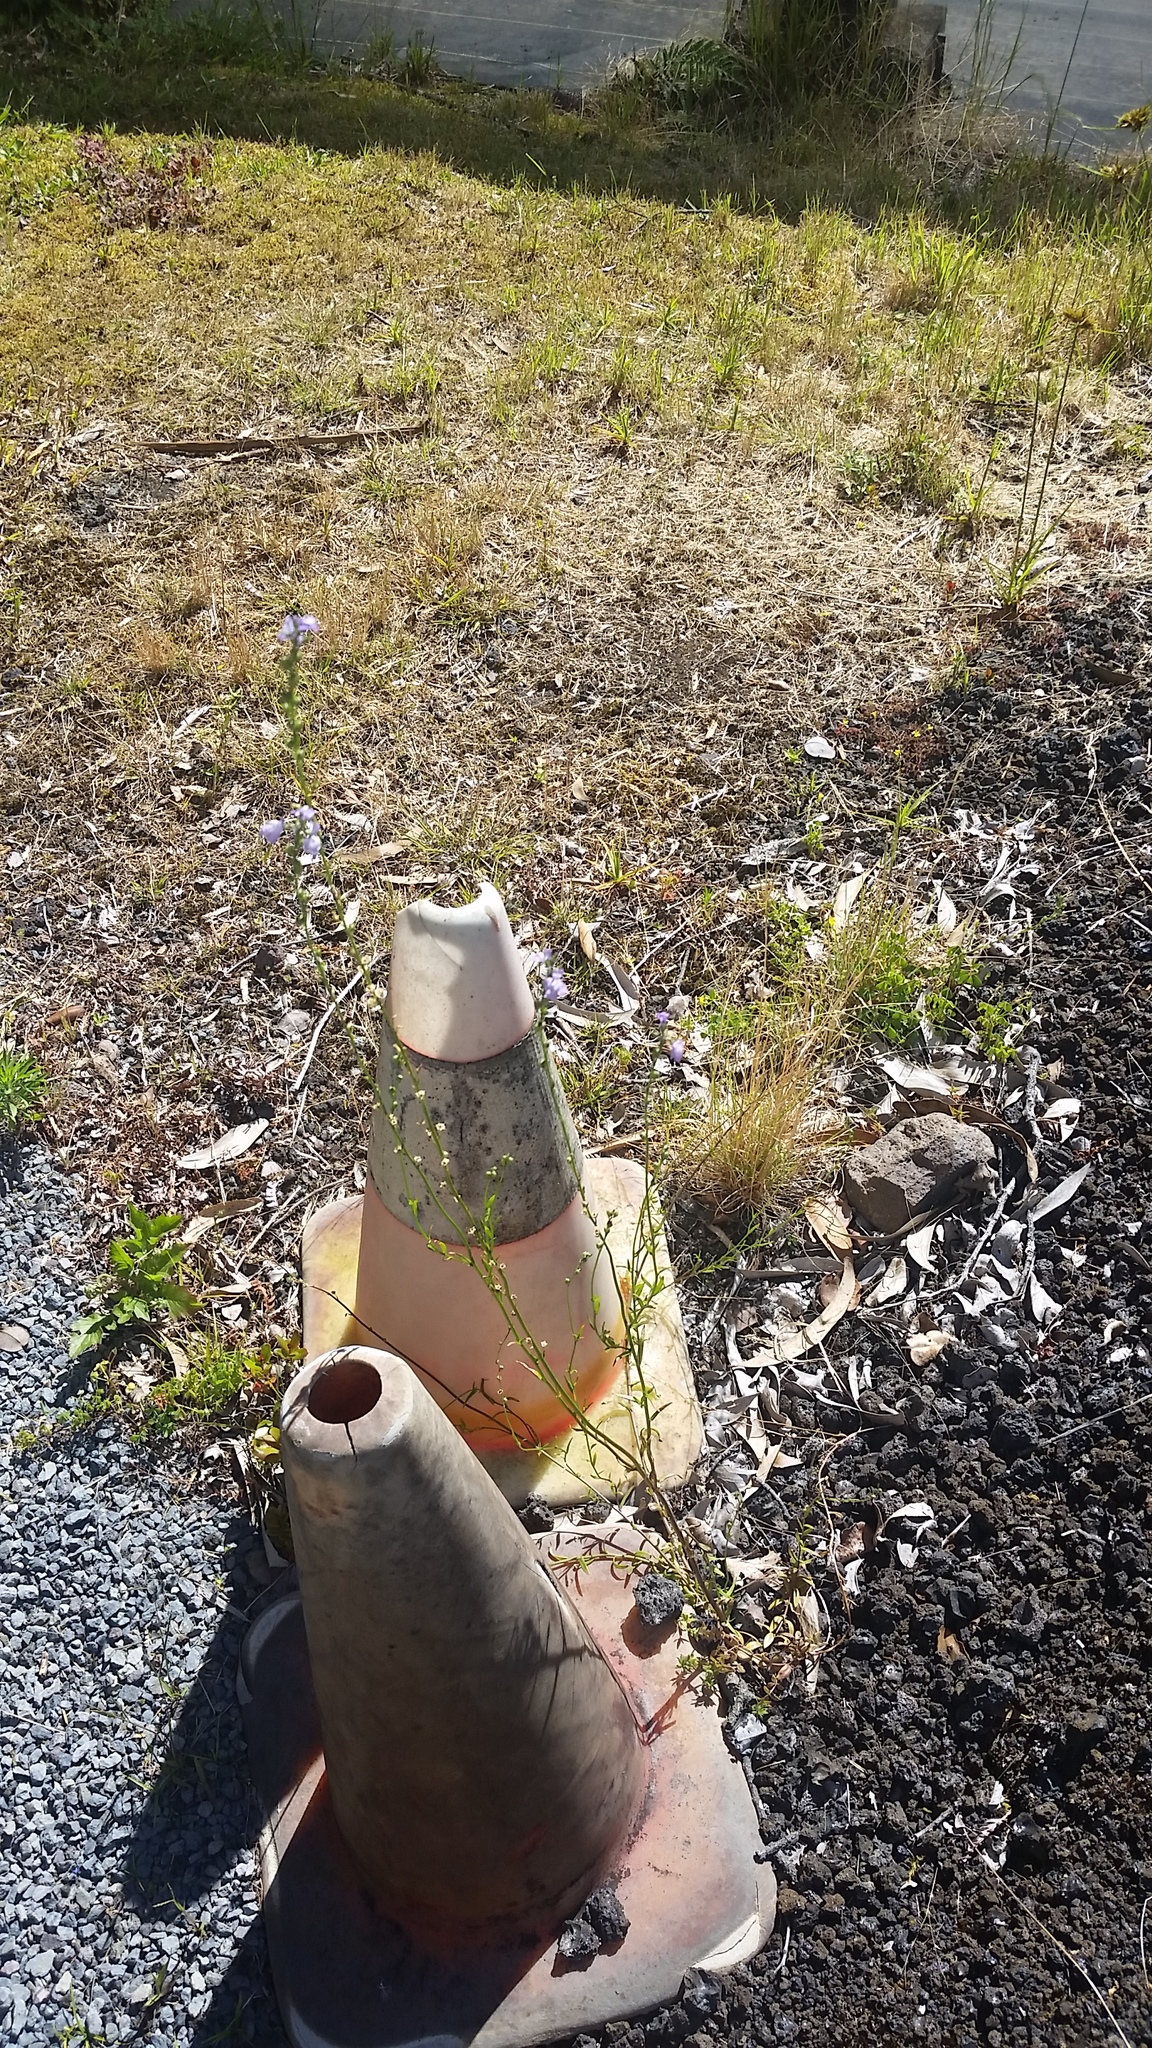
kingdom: Plantae
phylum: Tracheophyta
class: Magnoliopsida
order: Lamiales
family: Plantaginaceae
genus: Nuttallanthus
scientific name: Nuttallanthus texanus
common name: Texas toadflax
